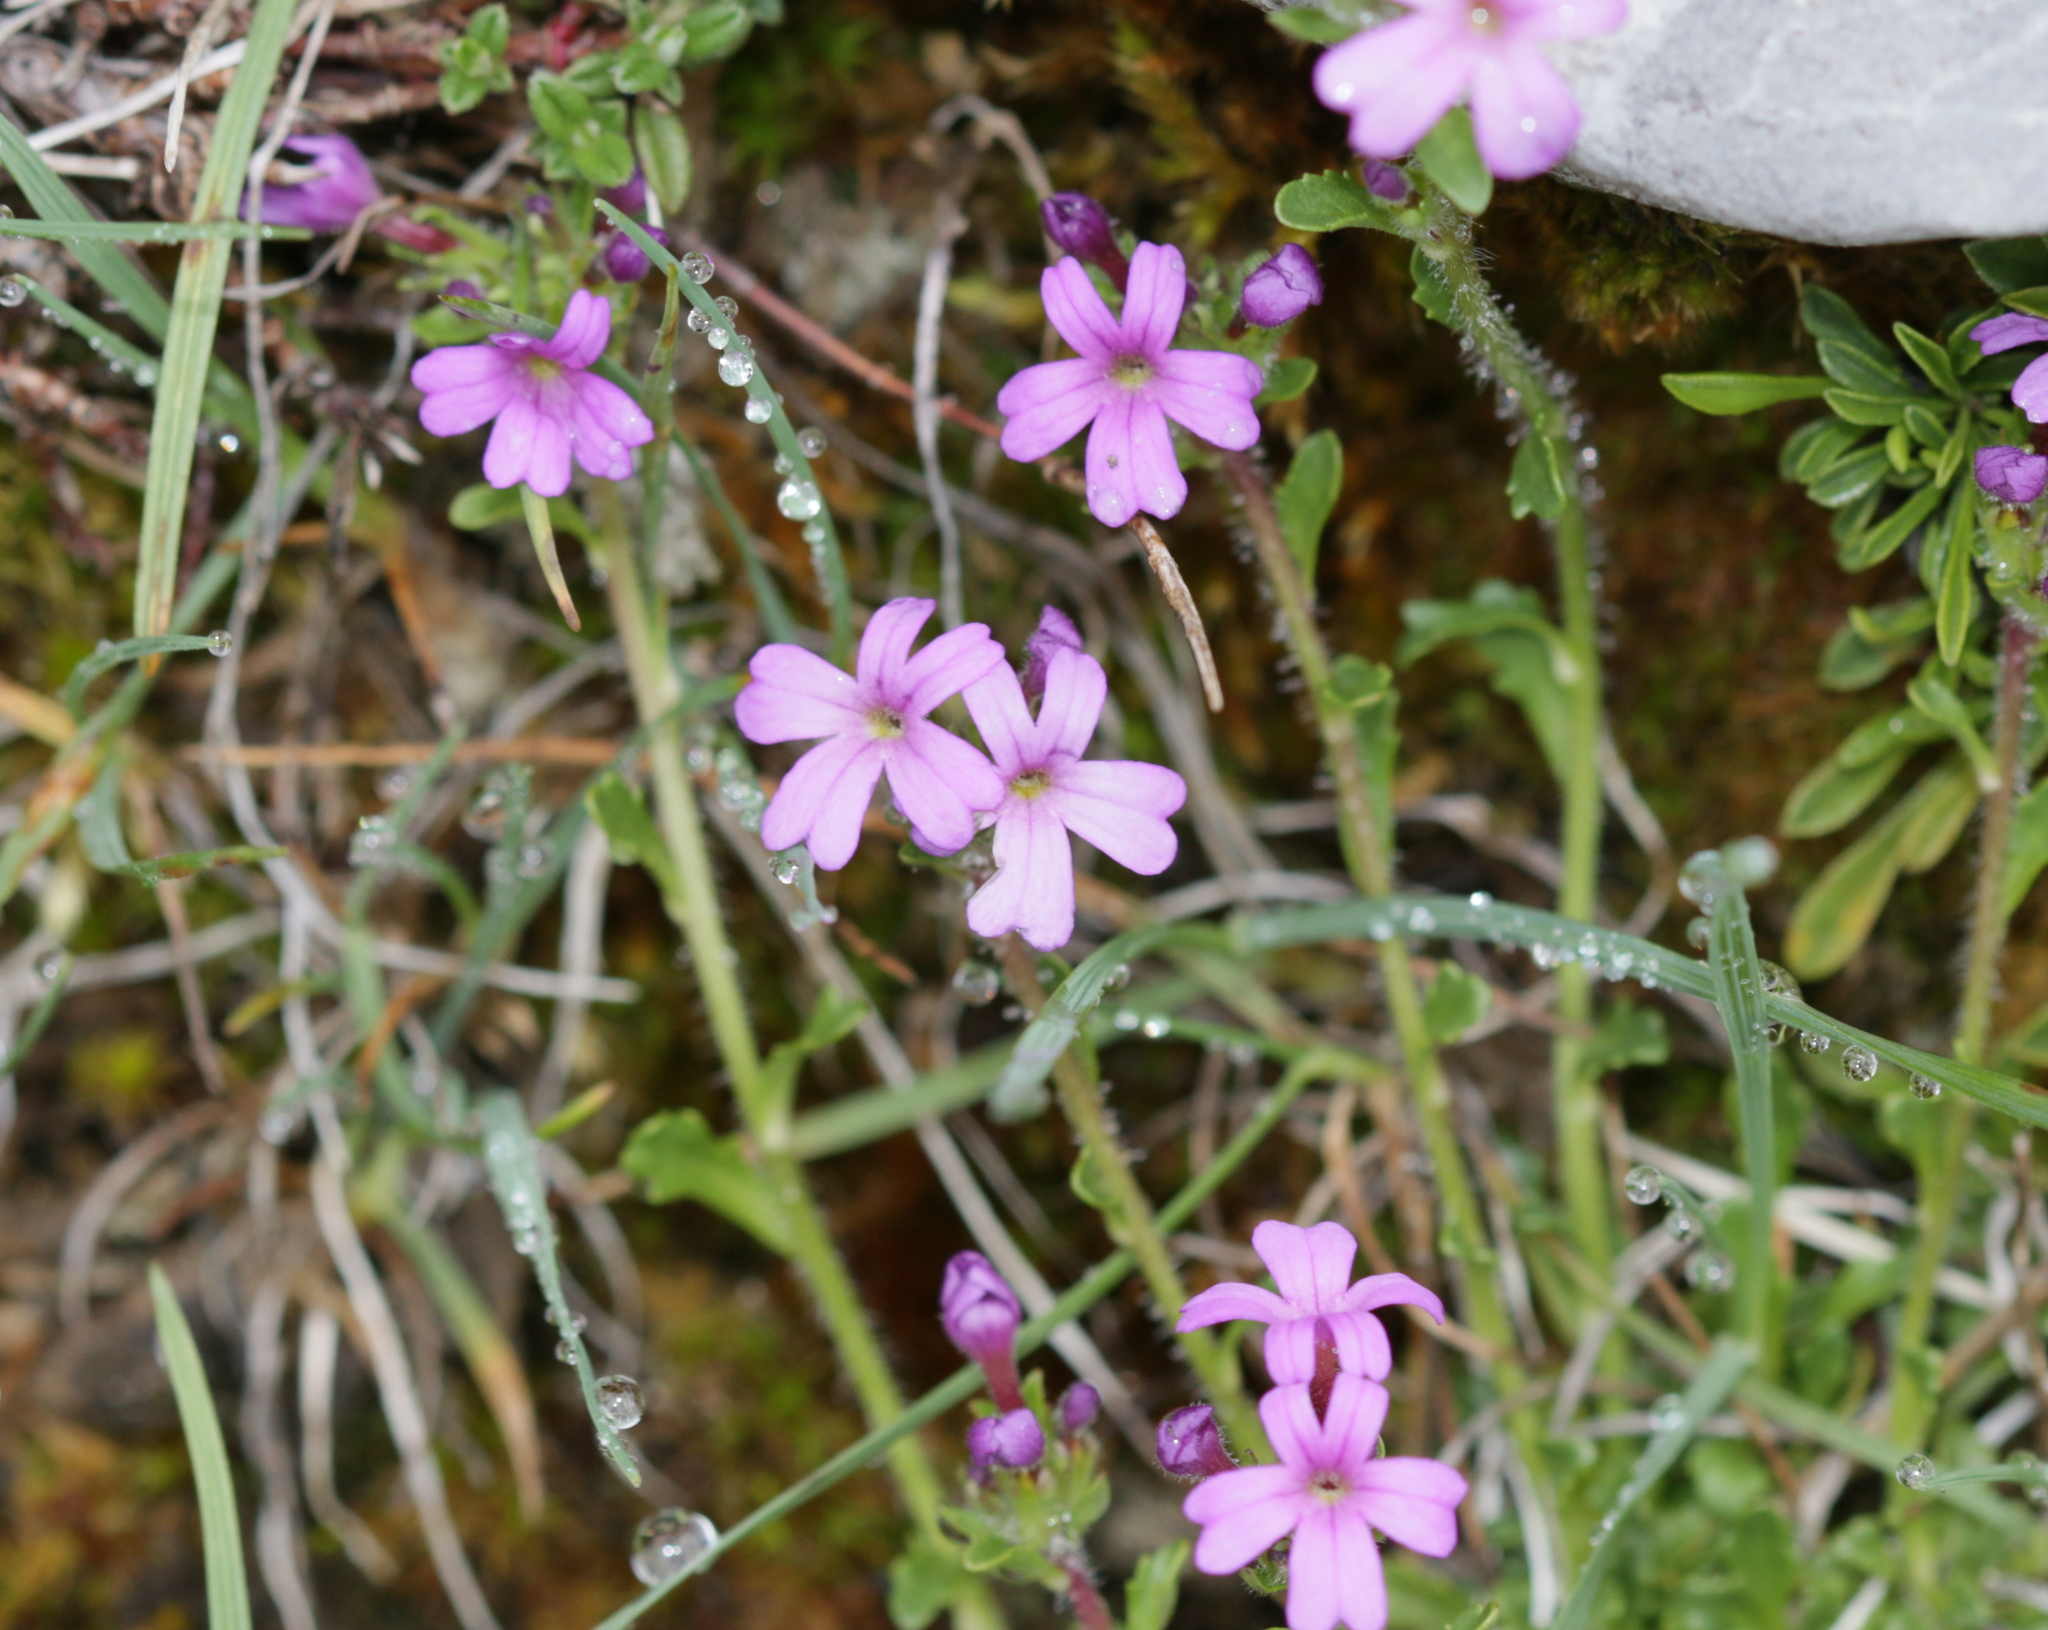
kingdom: Plantae
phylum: Tracheophyta
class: Magnoliopsida
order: Lamiales
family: Plantaginaceae
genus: Erinus
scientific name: Erinus alpinus
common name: Fairy foxglove
